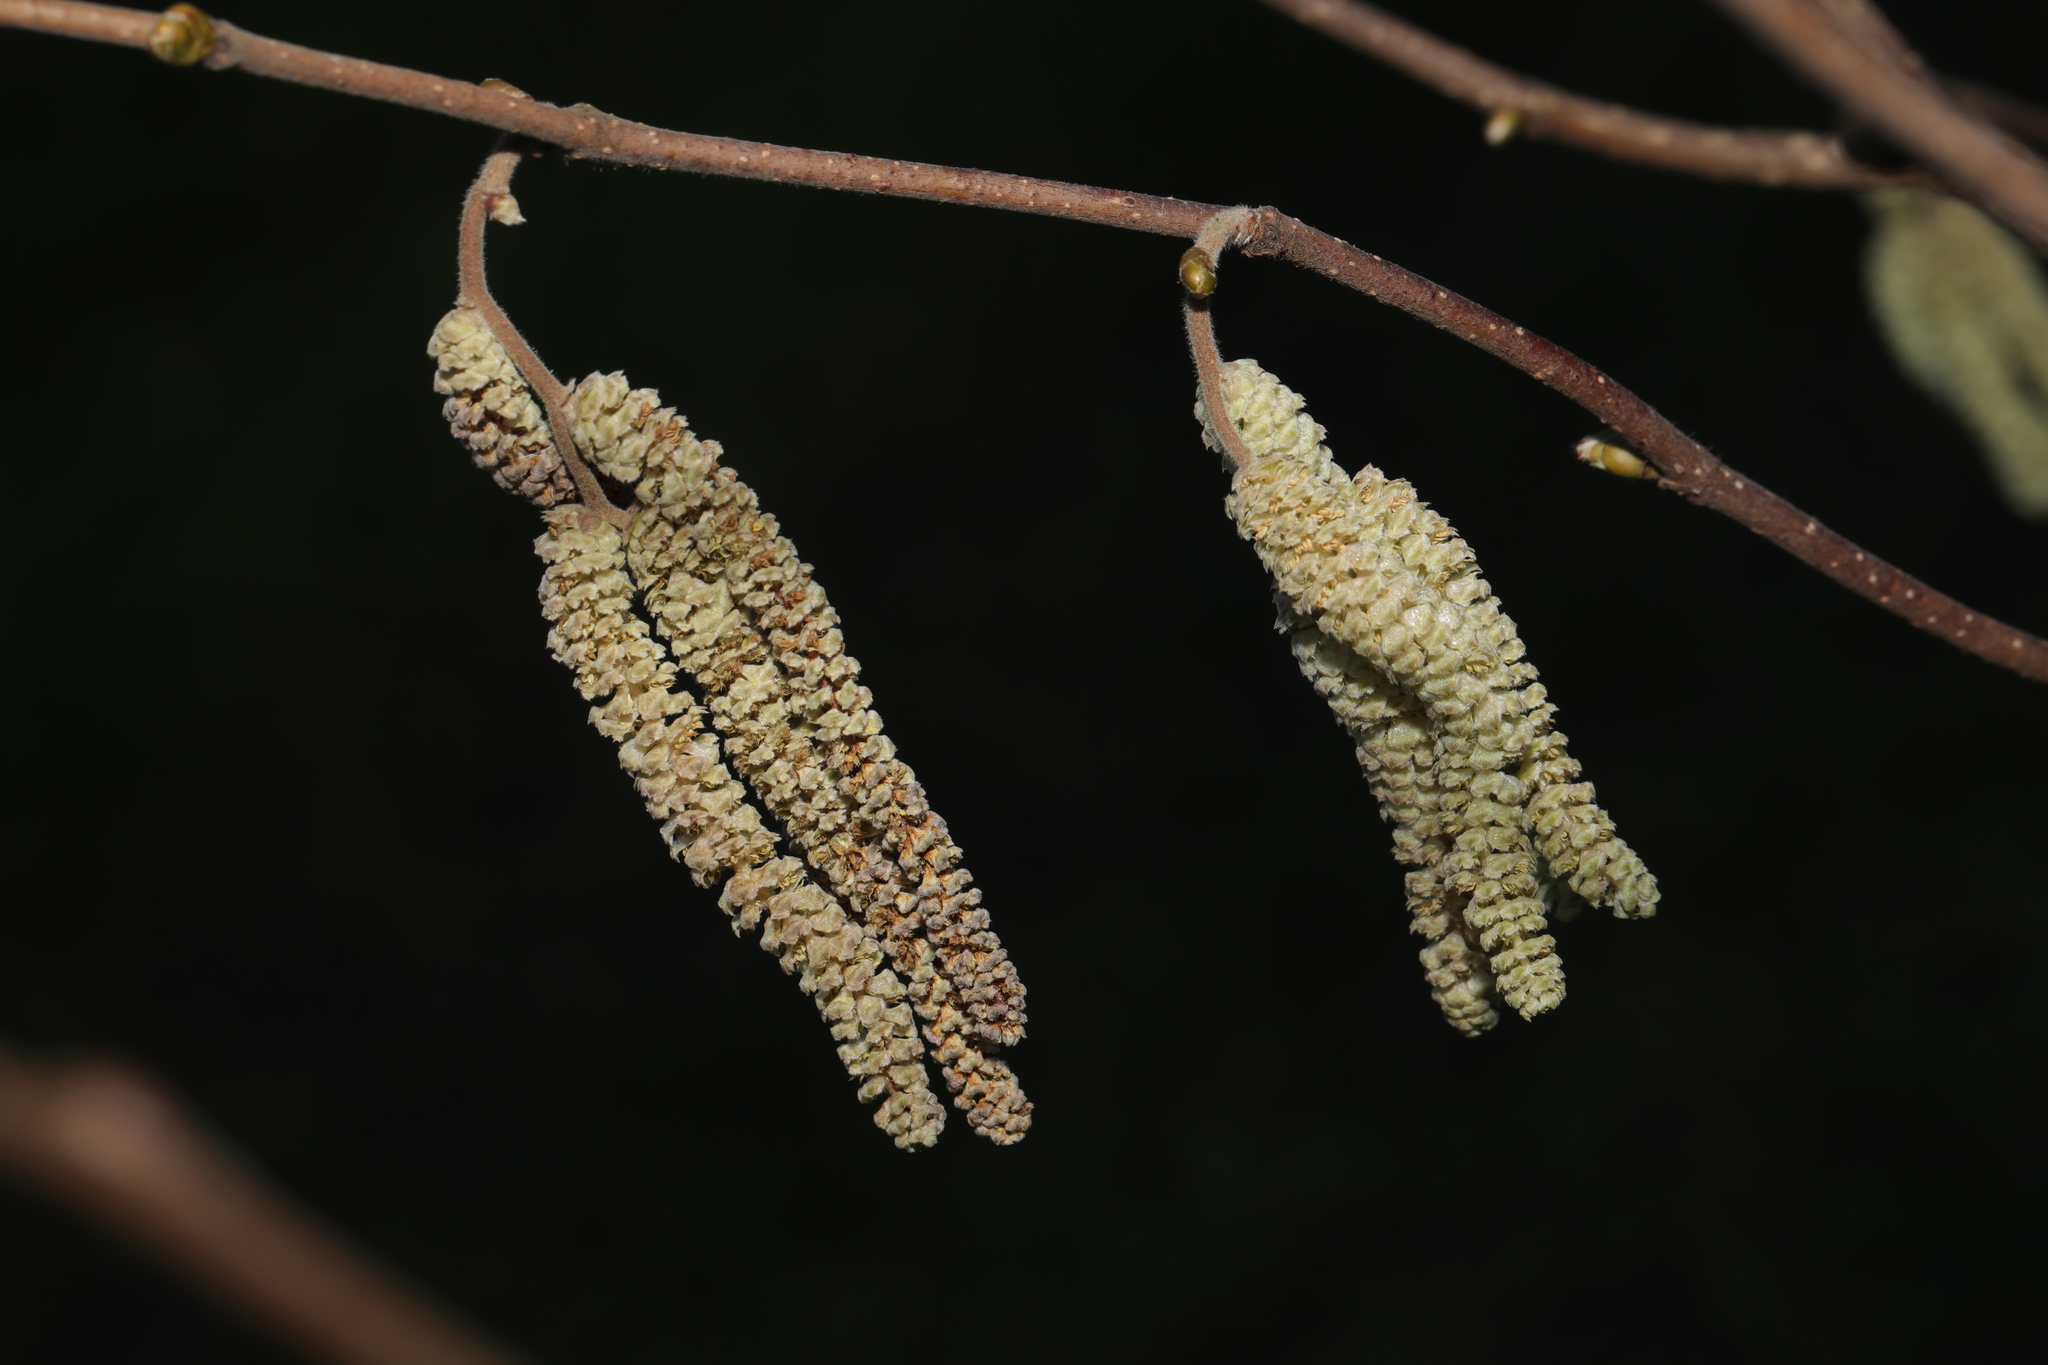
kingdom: Plantae
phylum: Tracheophyta
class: Magnoliopsida
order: Fagales
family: Betulaceae
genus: Corylus
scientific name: Corylus avellana
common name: European hazel
